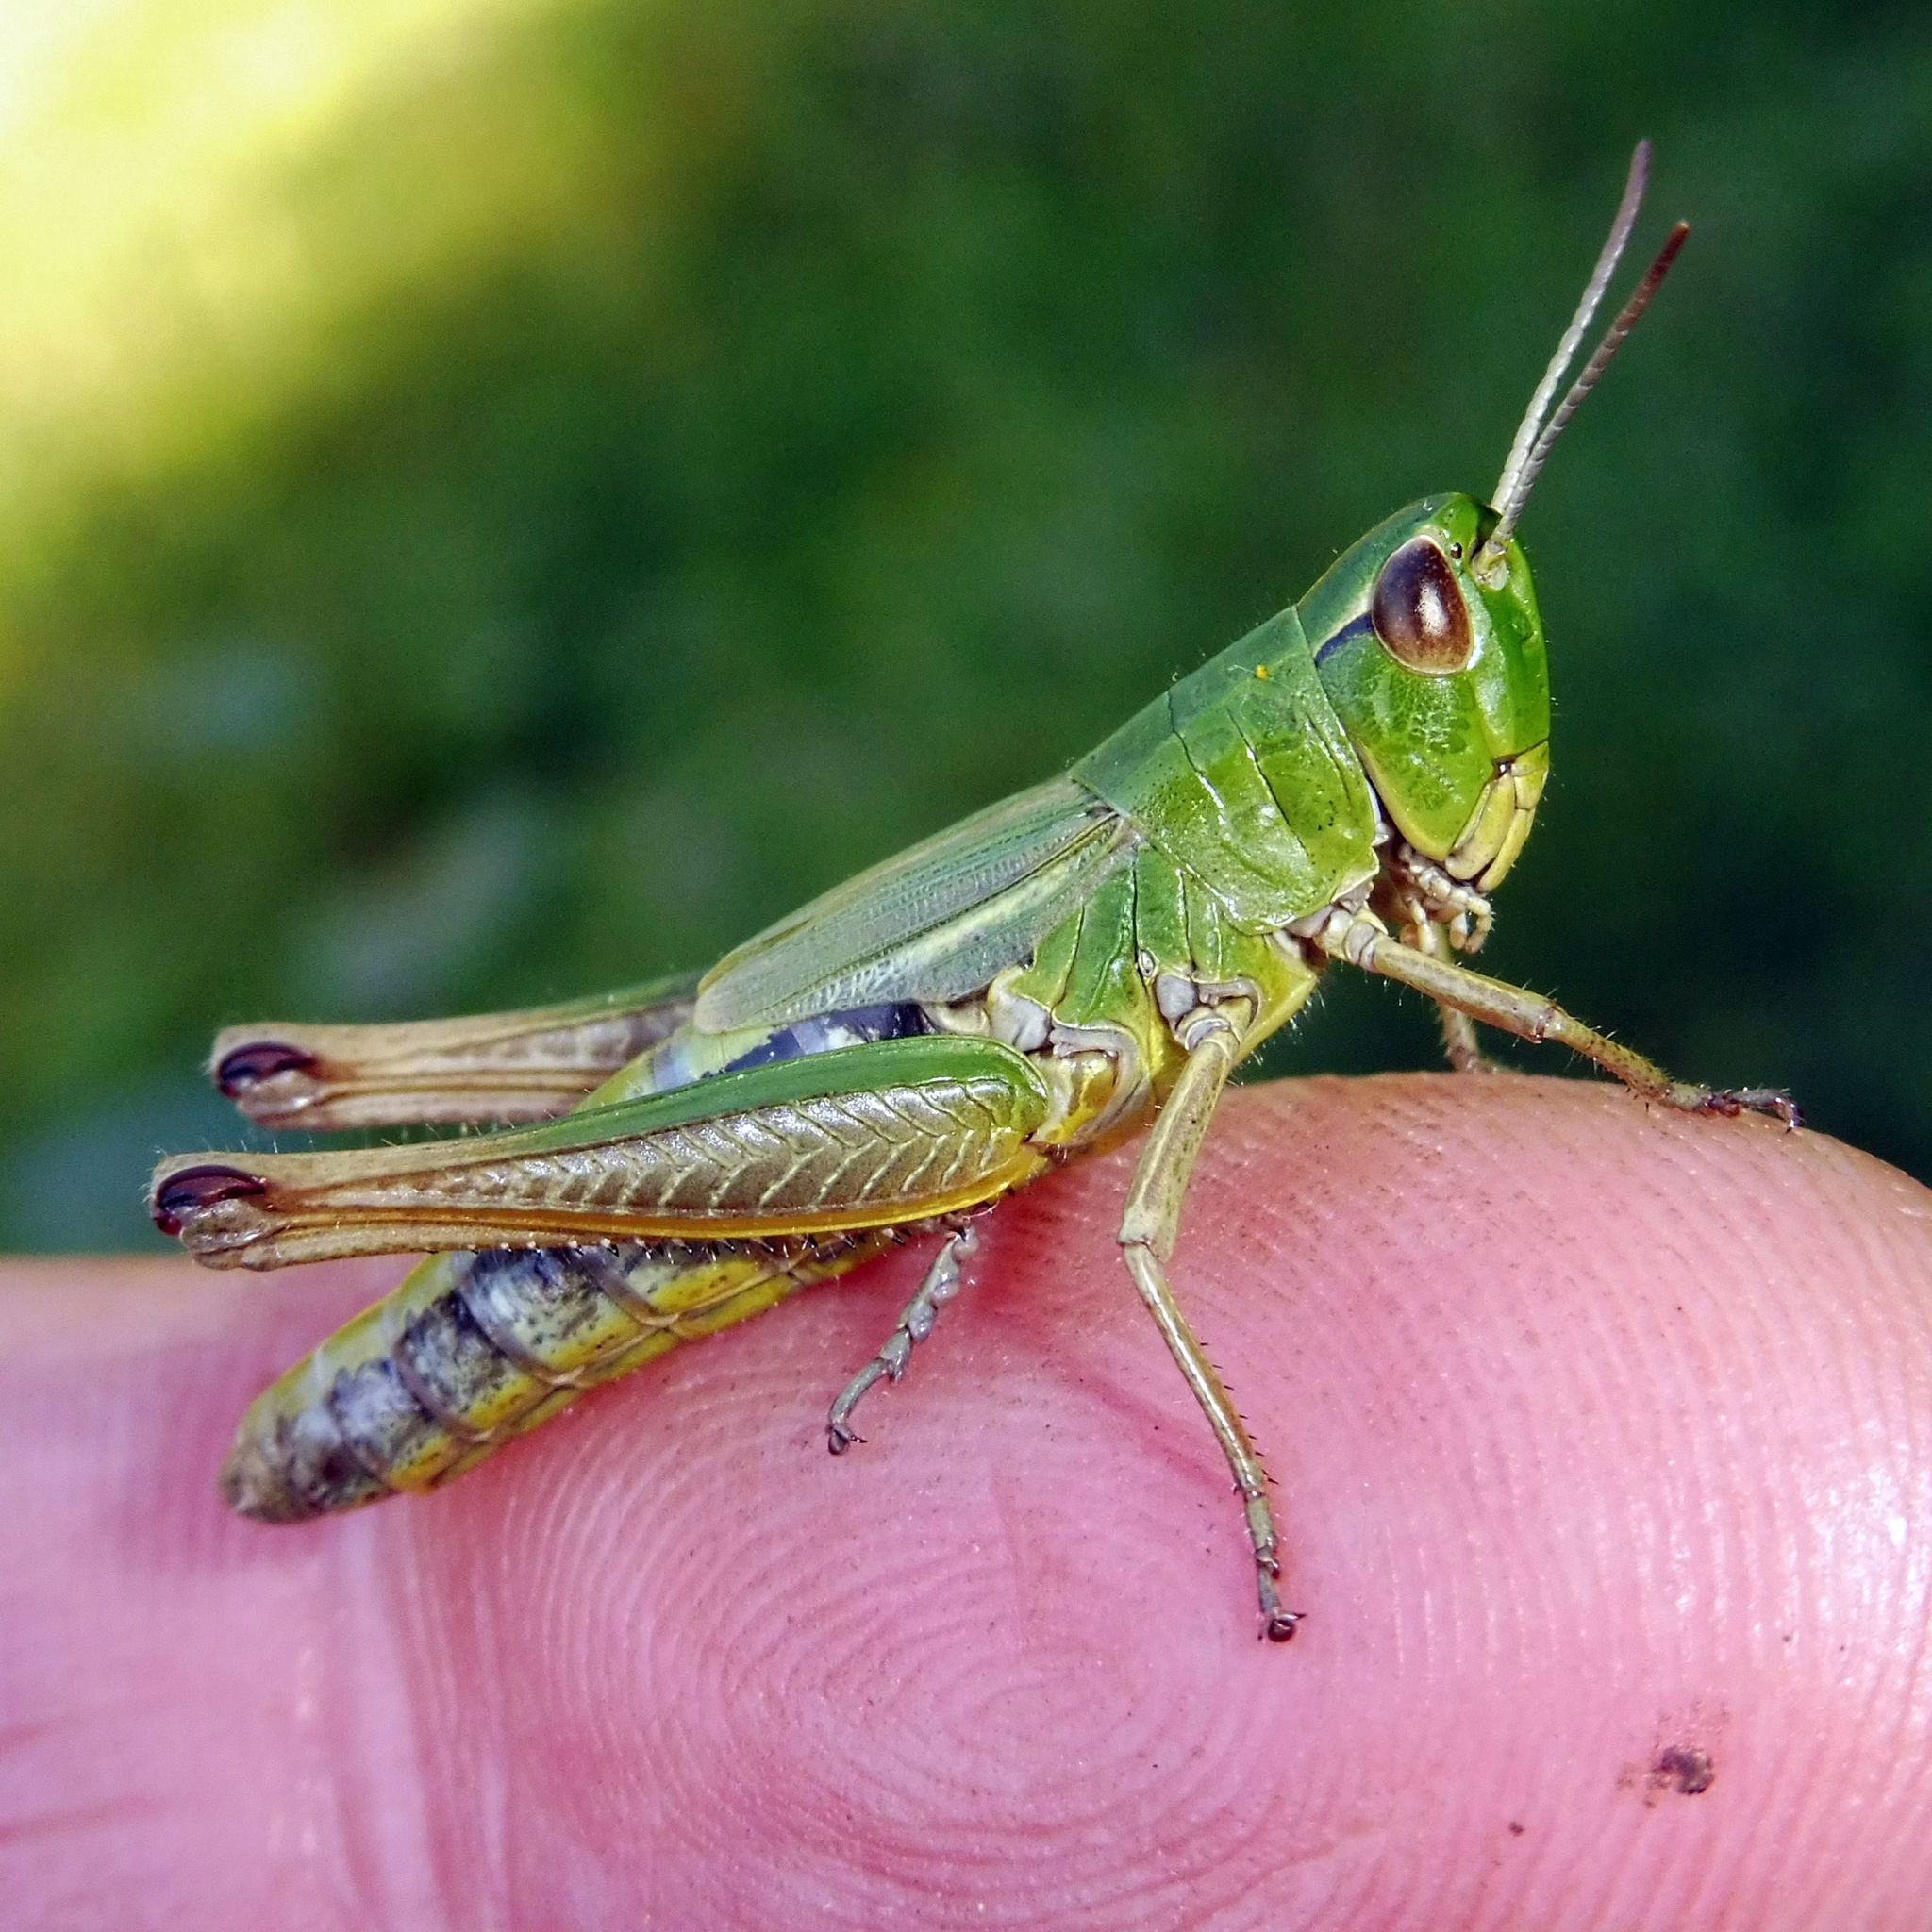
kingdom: Animalia
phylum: Arthropoda
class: Insecta
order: Orthoptera
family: Acrididae
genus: Pseudochorthippus
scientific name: Pseudochorthippus parallelus
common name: Meadow grasshopper
